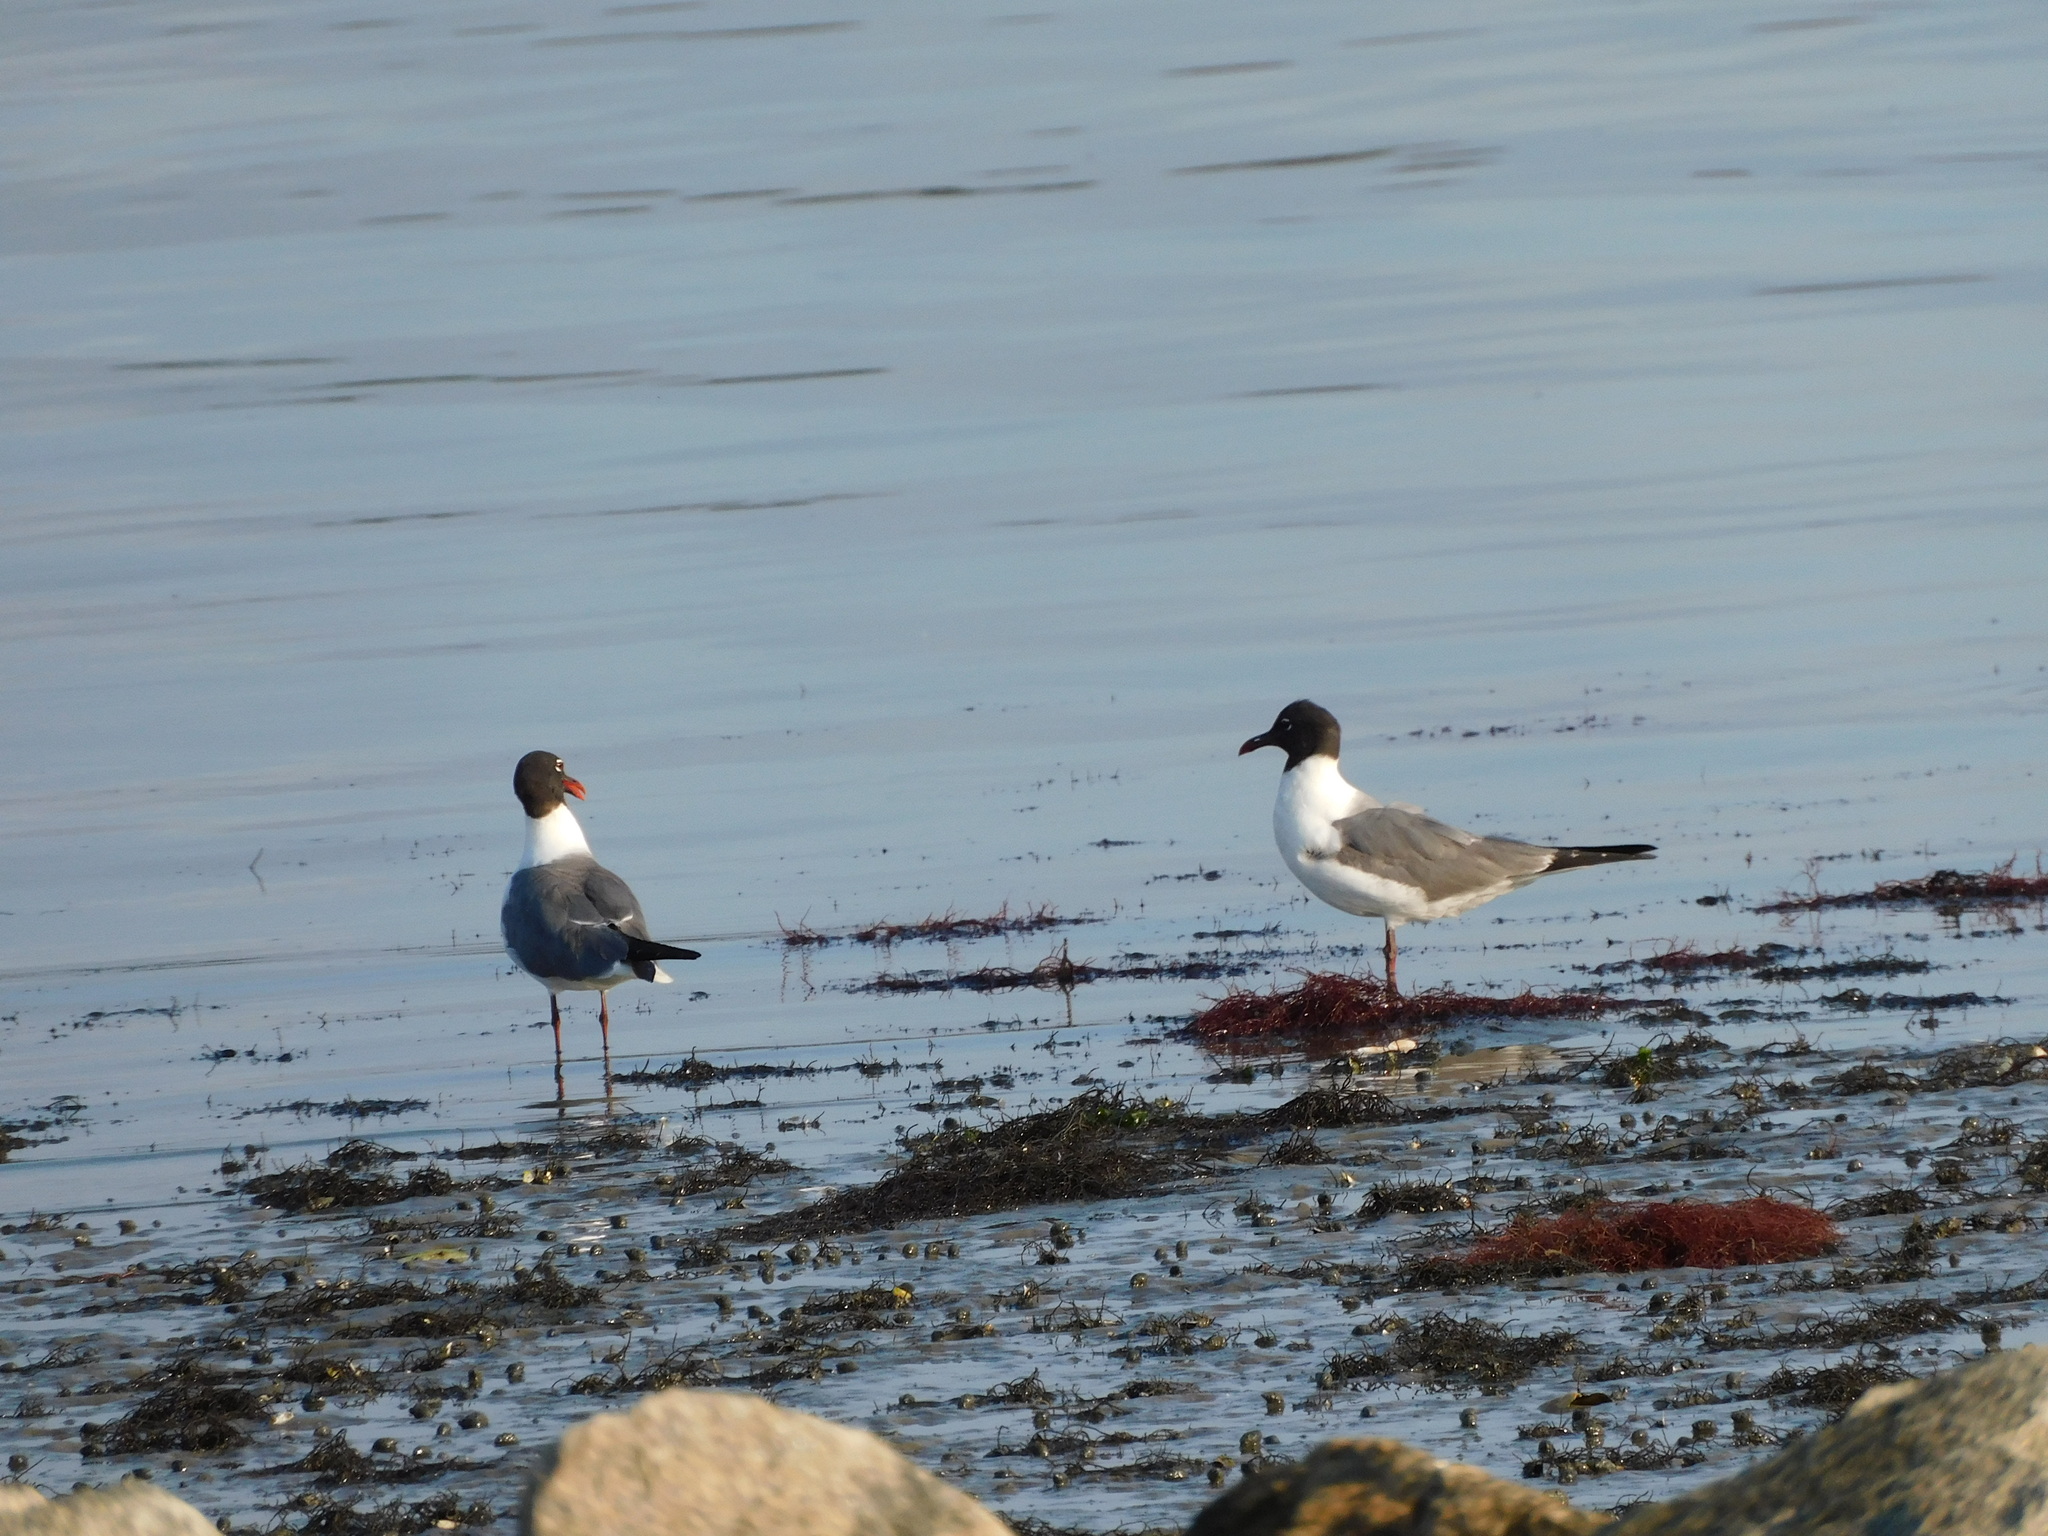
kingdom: Animalia
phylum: Chordata
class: Aves
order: Charadriiformes
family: Laridae
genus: Leucophaeus
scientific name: Leucophaeus atricilla
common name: Laughing gull
